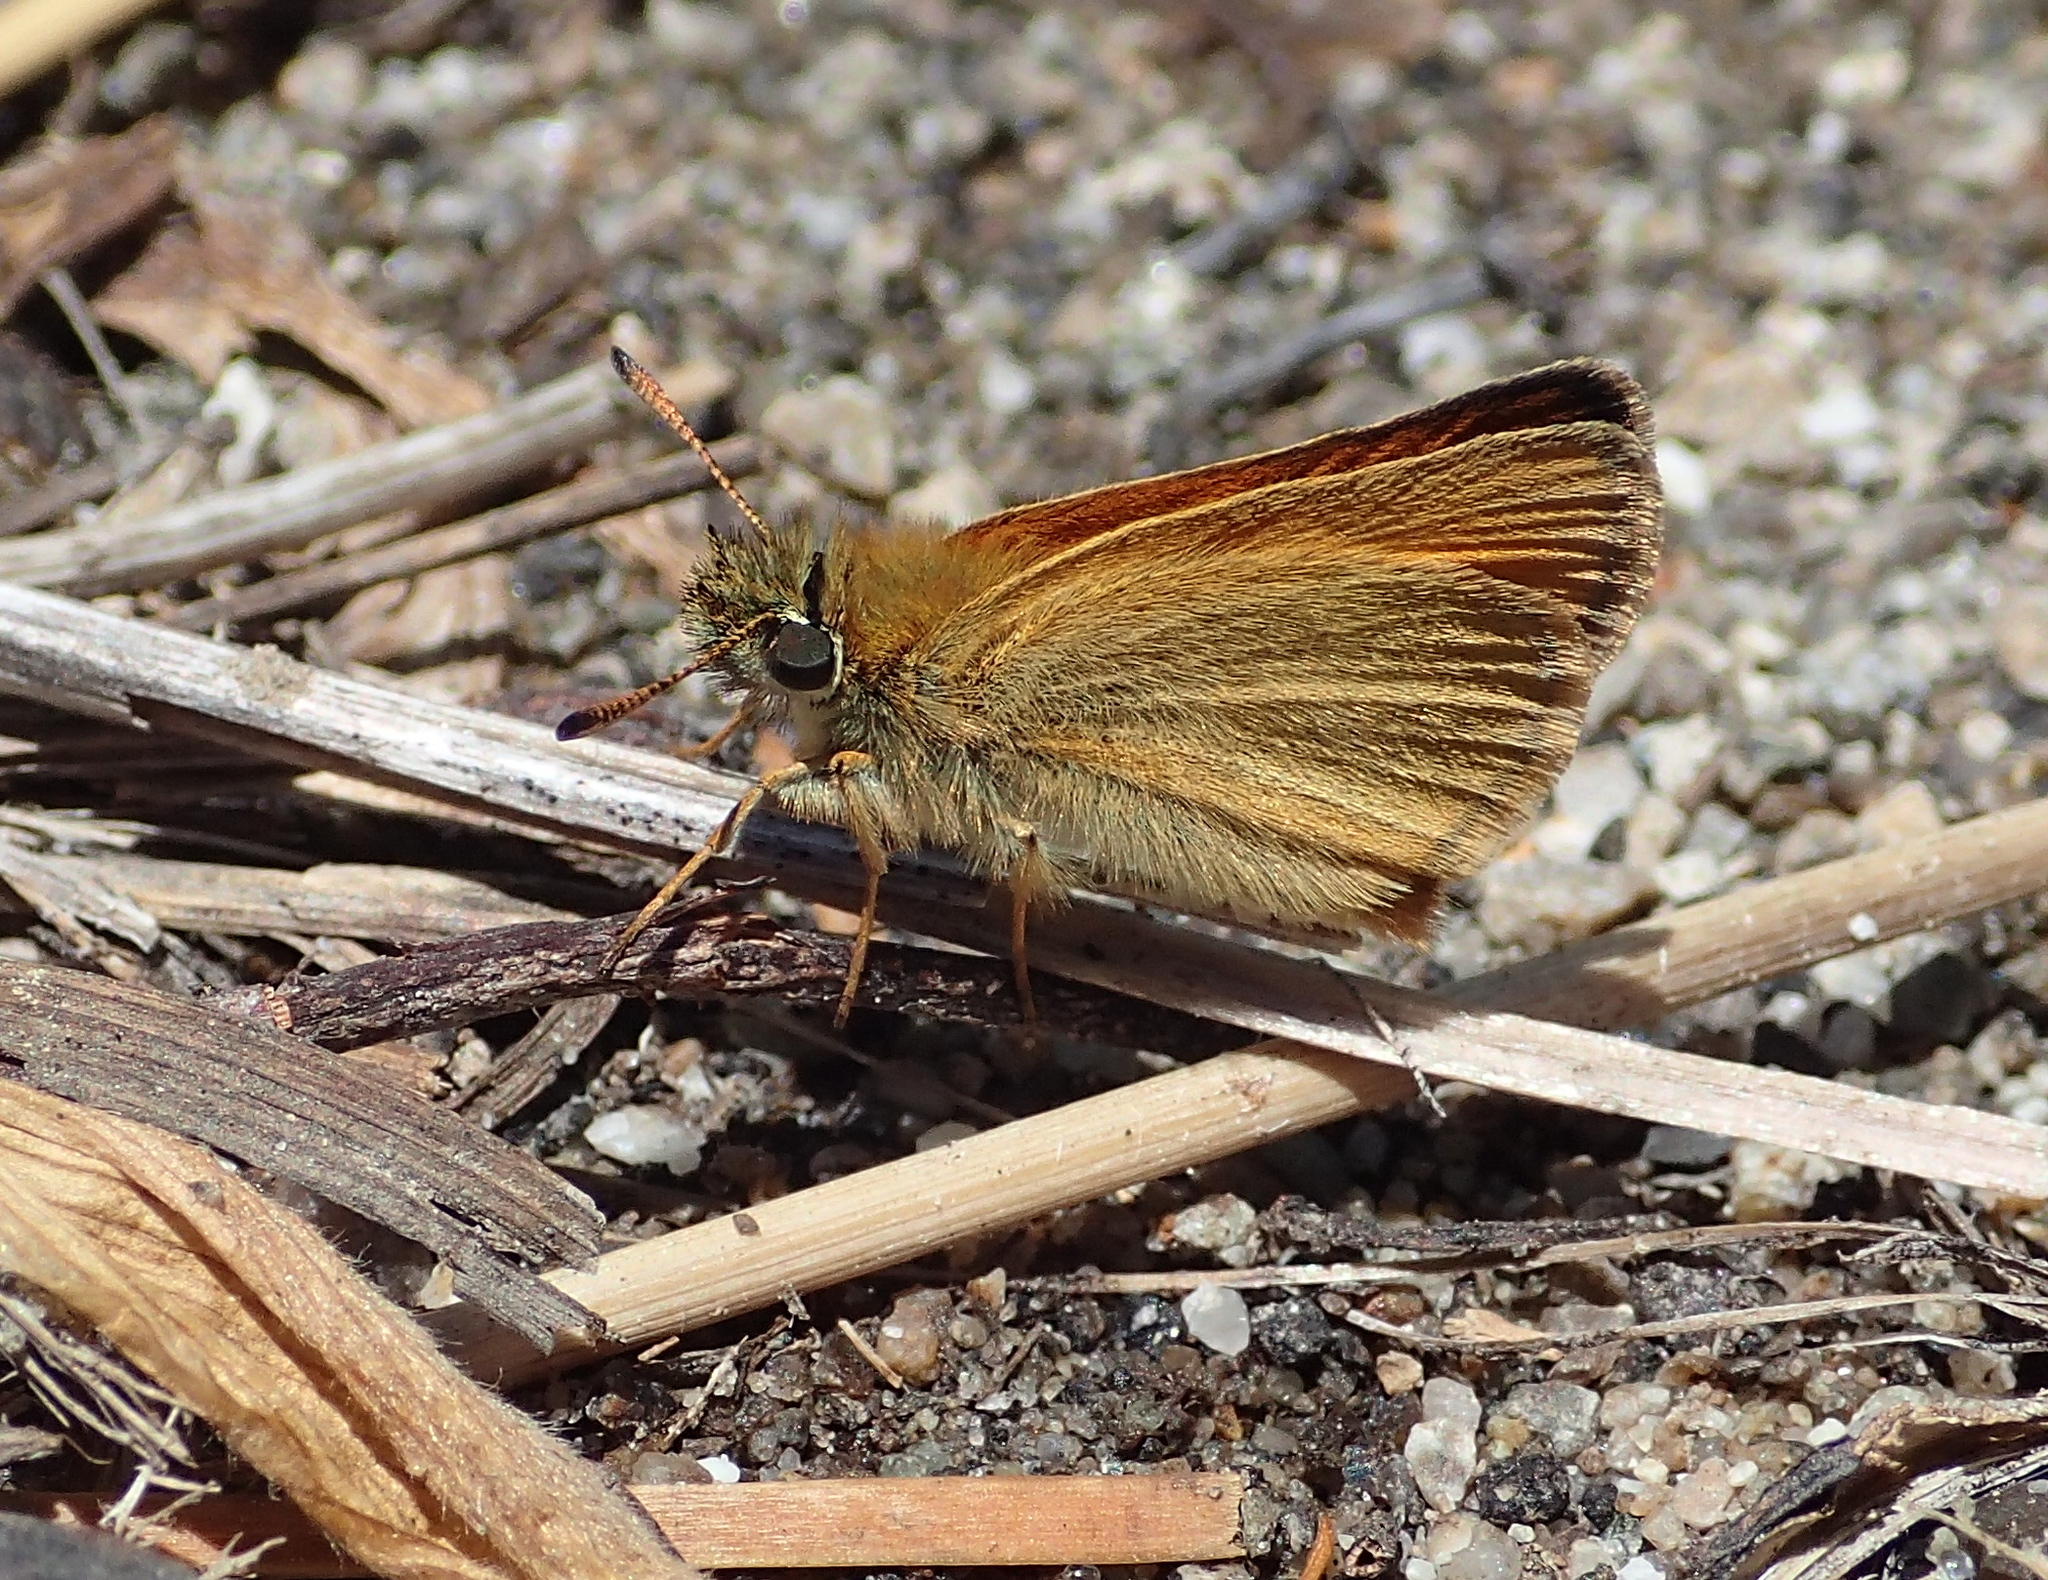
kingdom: Animalia
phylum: Arthropoda
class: Insecta
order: Lepidoptera
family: Hesperiidae
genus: Thymelicus
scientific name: Thymelicus lineola
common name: Essex skipper
